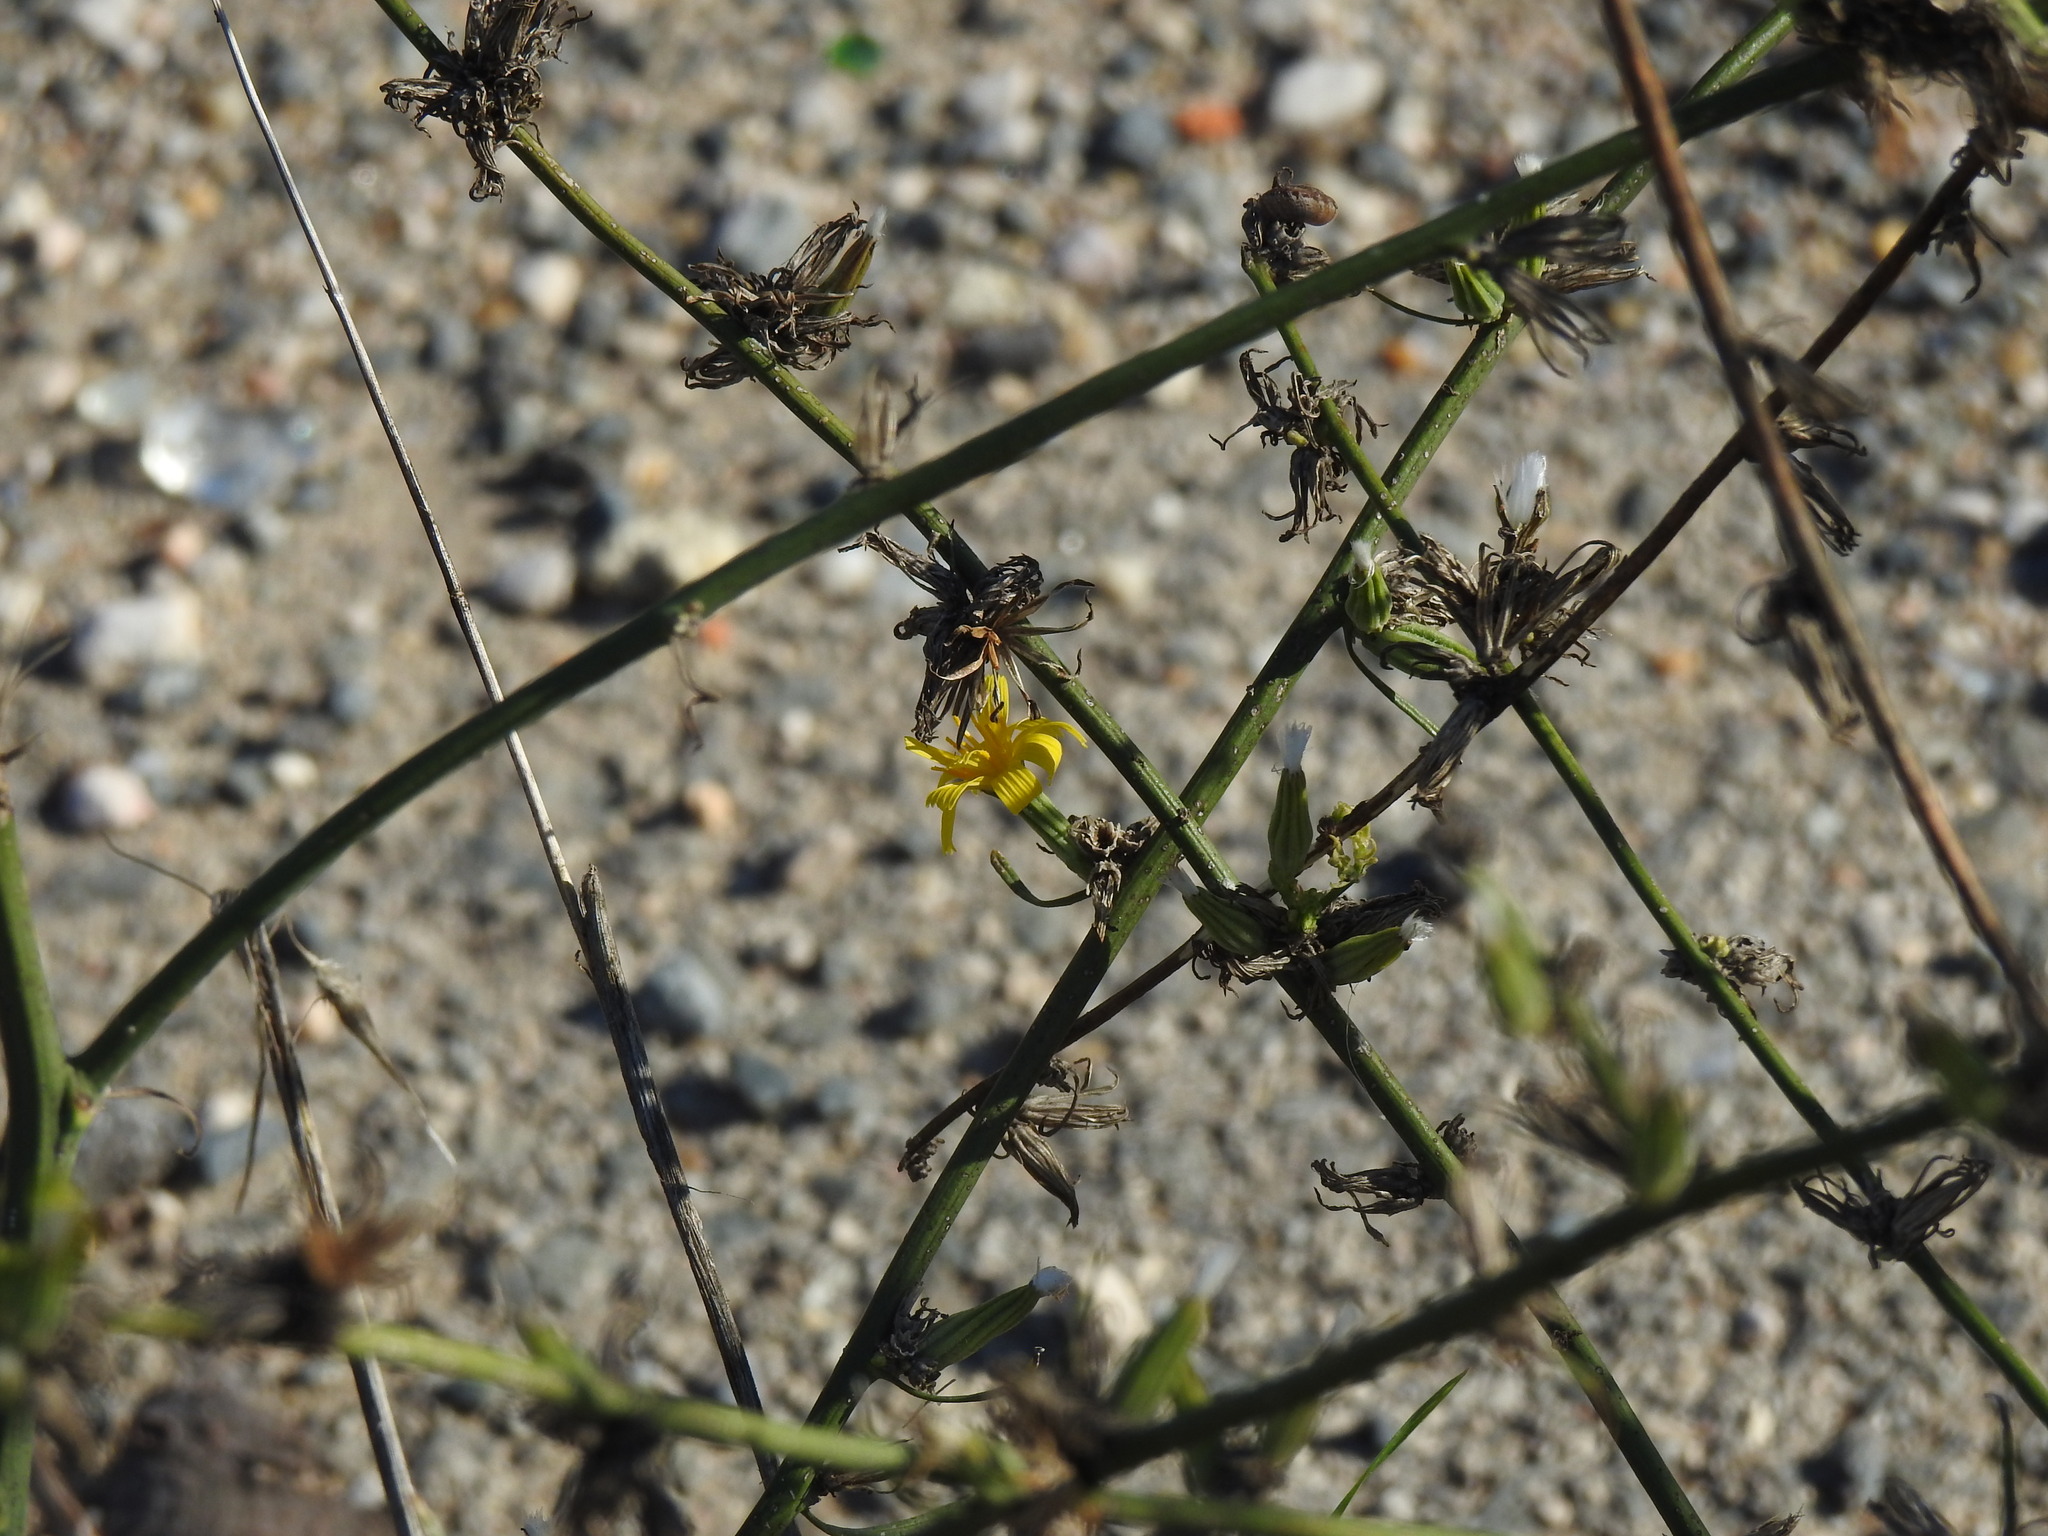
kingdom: Plantae
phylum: Tracheophyta
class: Magnoliopsida
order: Asterales
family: Asteraceae
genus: Chondrilla
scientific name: Chondrilla juncea
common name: Skeleton weed
